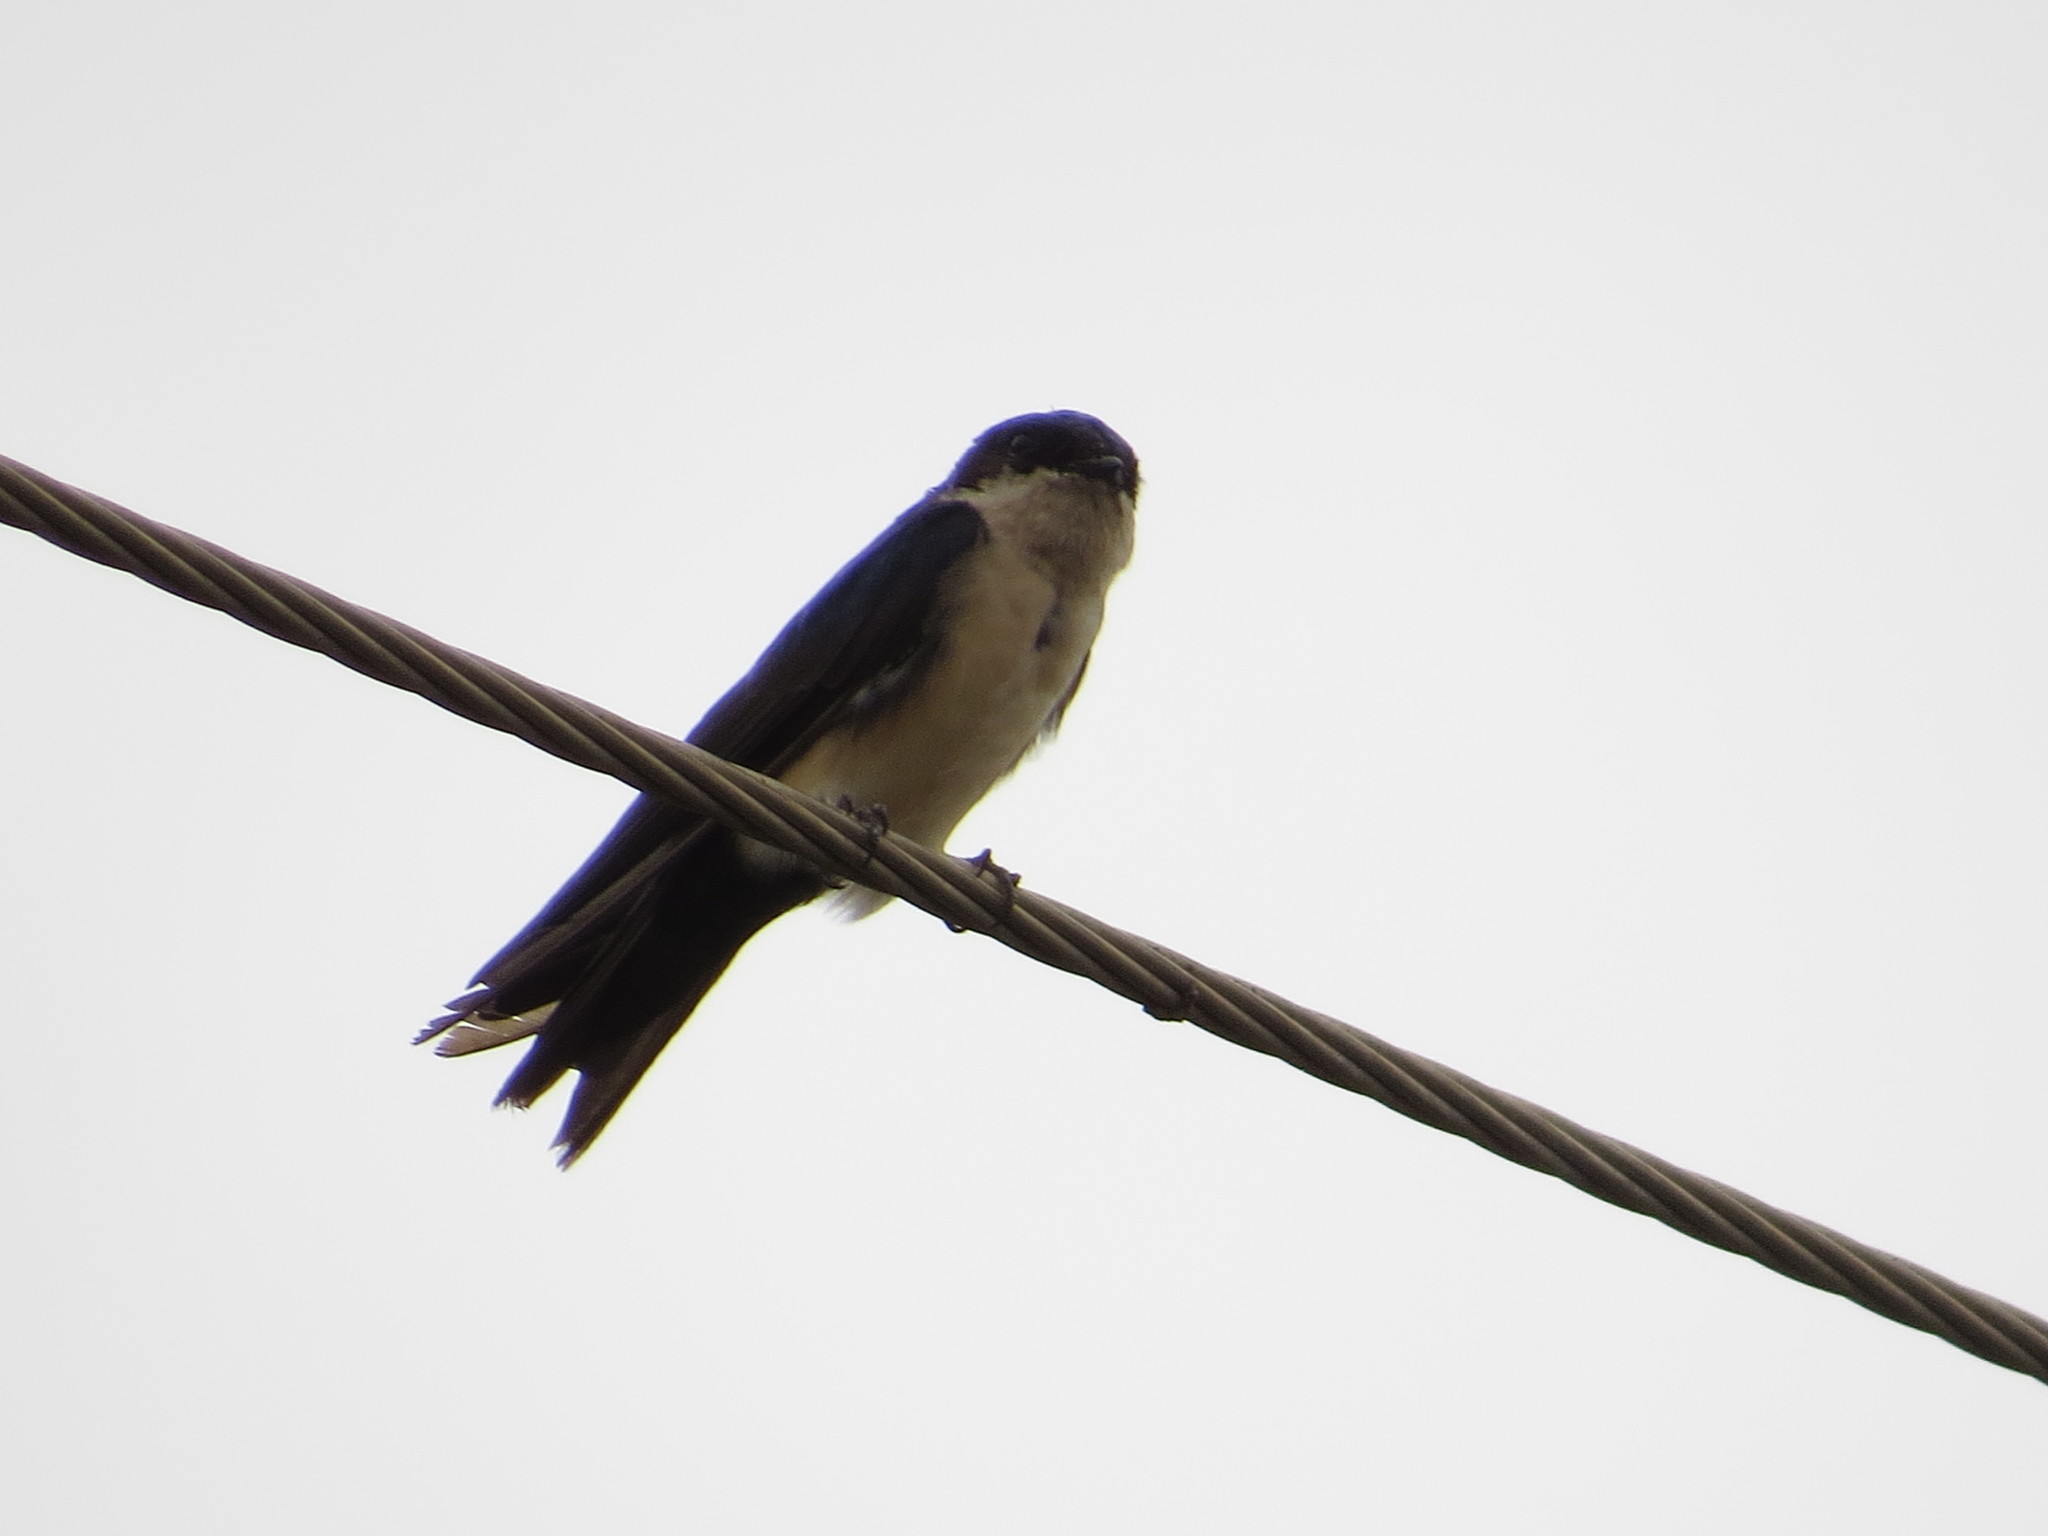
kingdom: Animalia
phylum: Chordata
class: Aves
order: Passeriformes
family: Hirundinidae
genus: Notiochelidon
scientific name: Notiochelidon cyanoleuca
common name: Blue-and-white swallow
